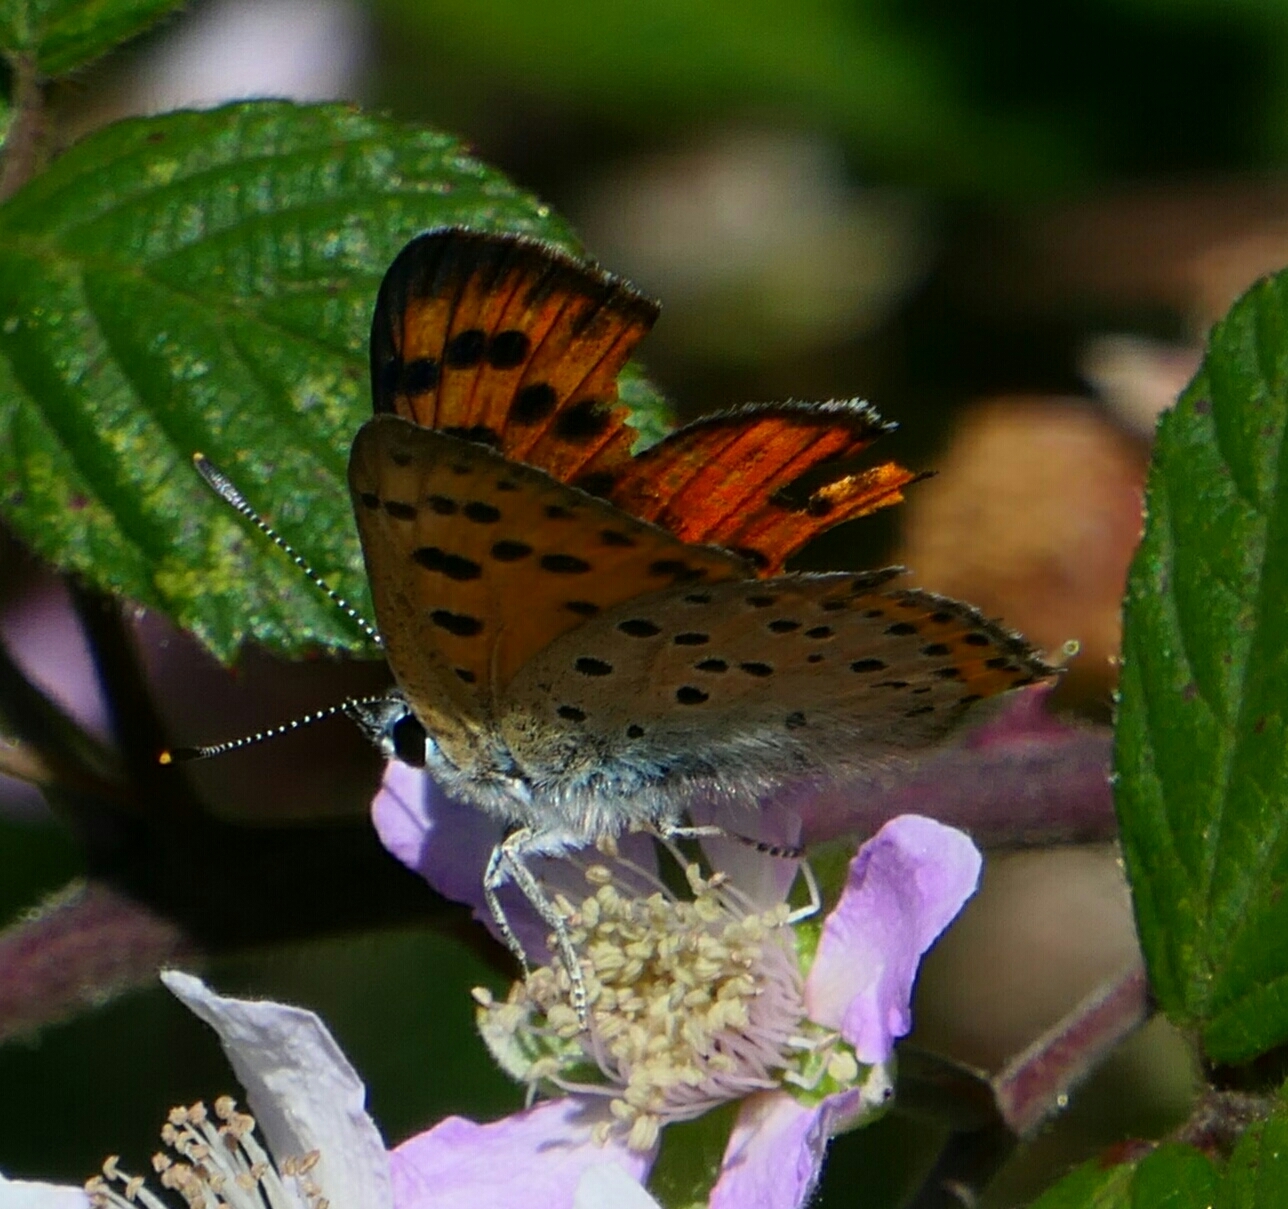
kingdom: Animalia
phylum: Arthropoda
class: Insecta
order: Lepidoptera
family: Lycaenidae
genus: Lycaena
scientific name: Lycaena alciphron
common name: Purple-shot copper
